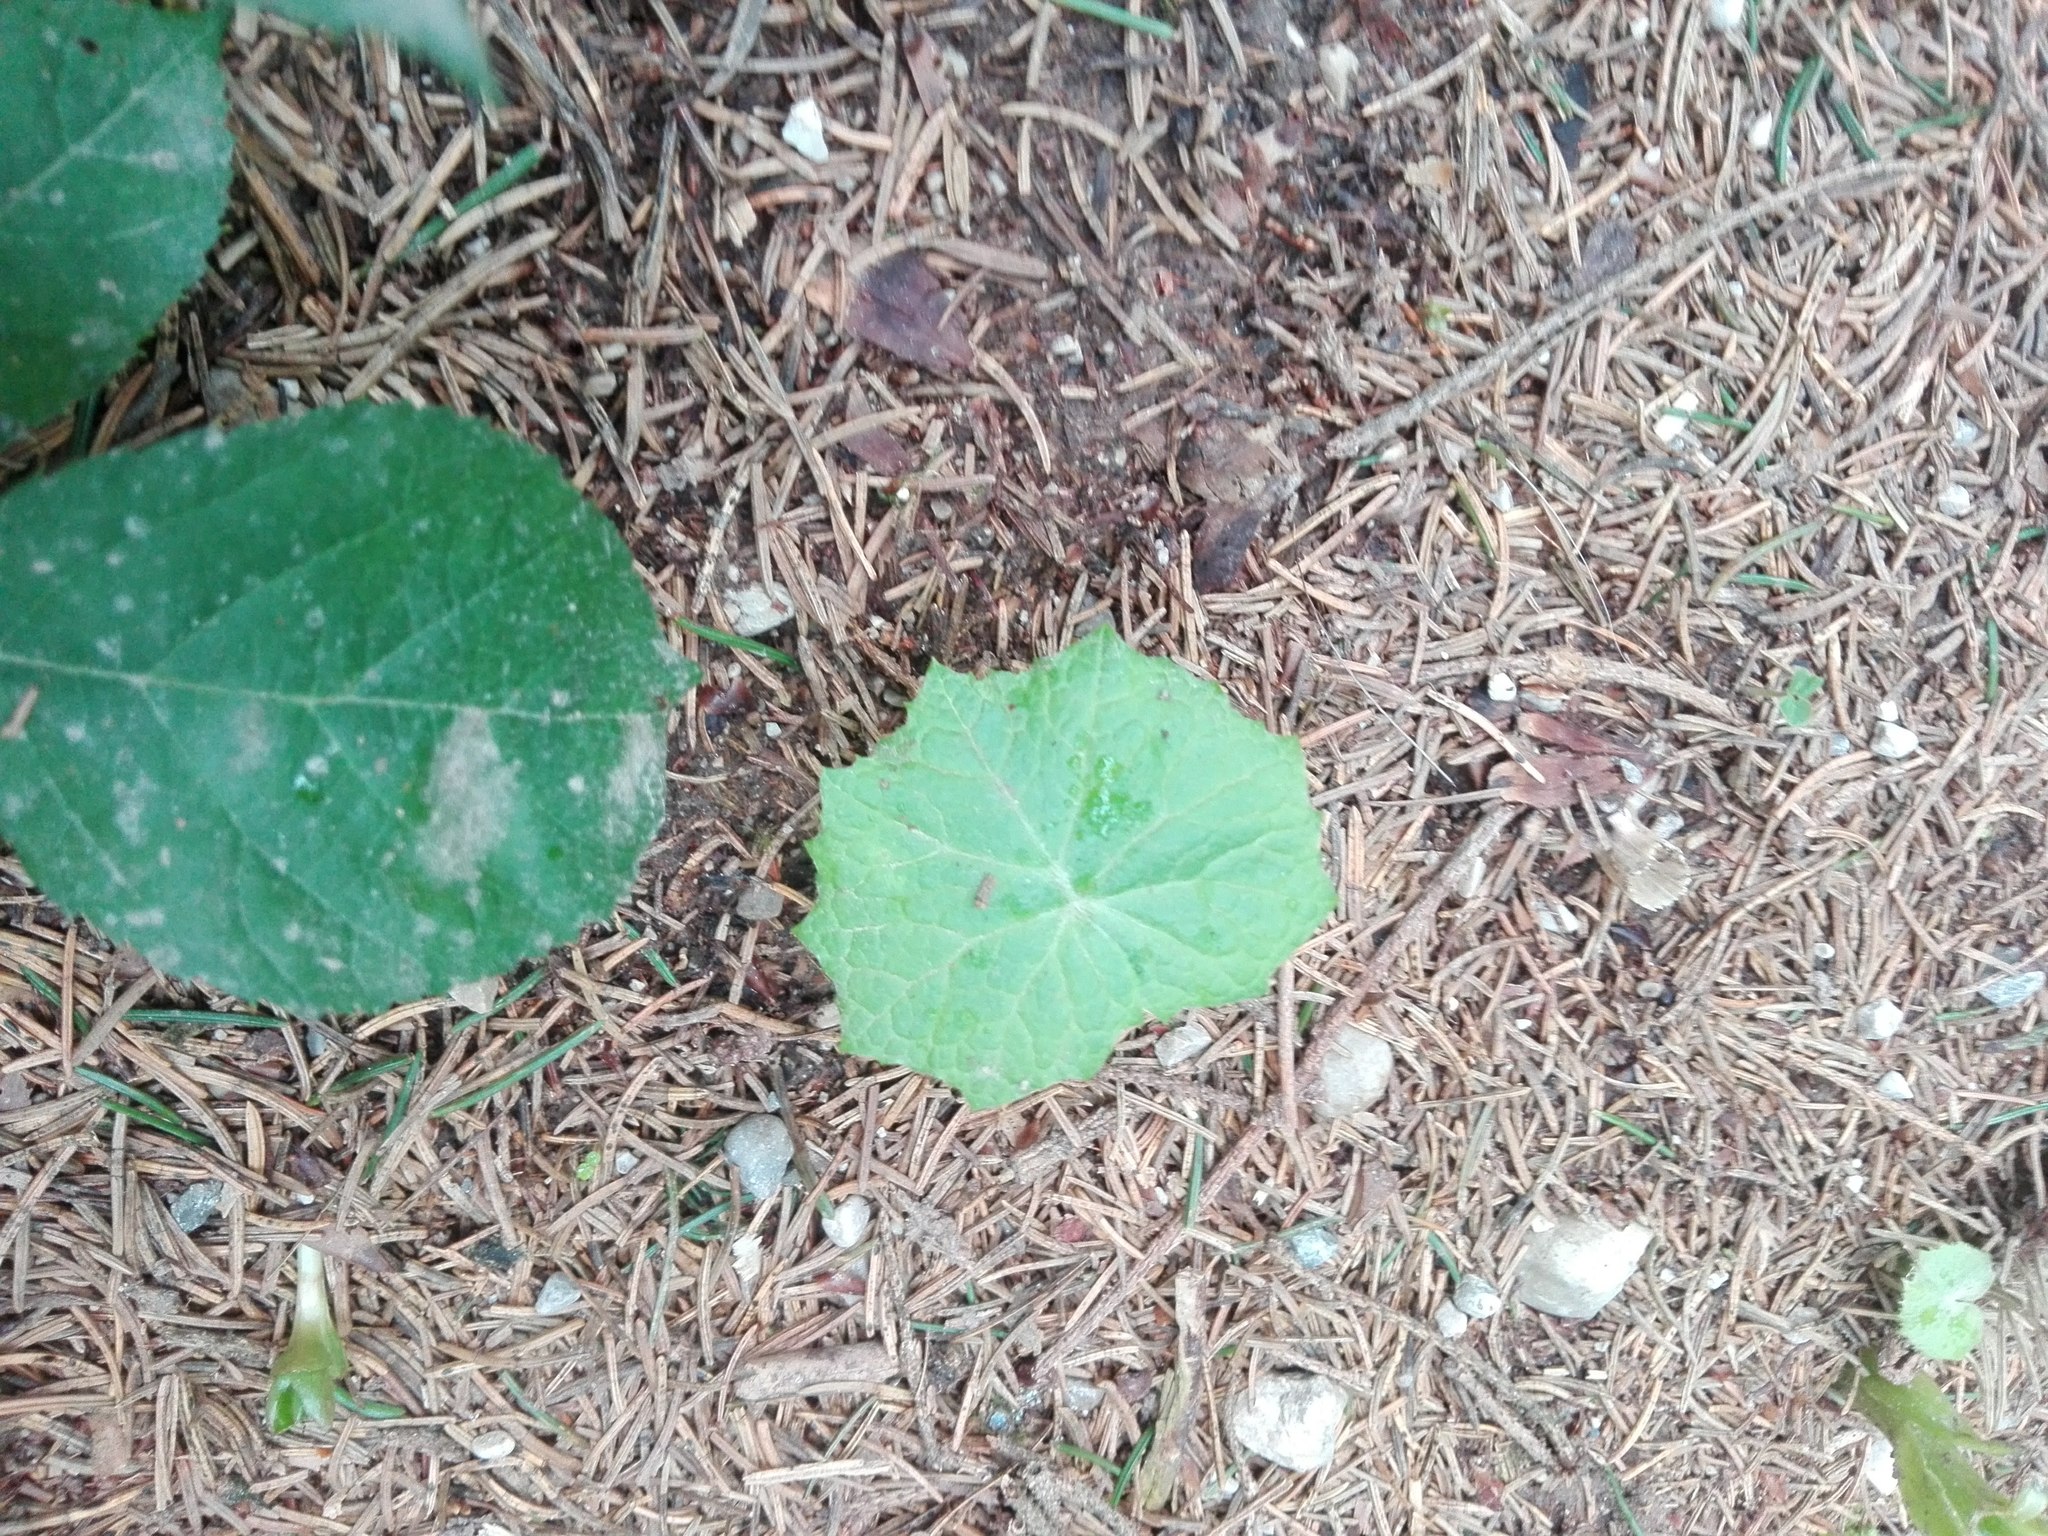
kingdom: Plantae
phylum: Tracheophyta
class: Magnoliopsida
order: Asterales
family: Asteraceae
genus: Petasites
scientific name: Petasites albus
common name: White butterbur
